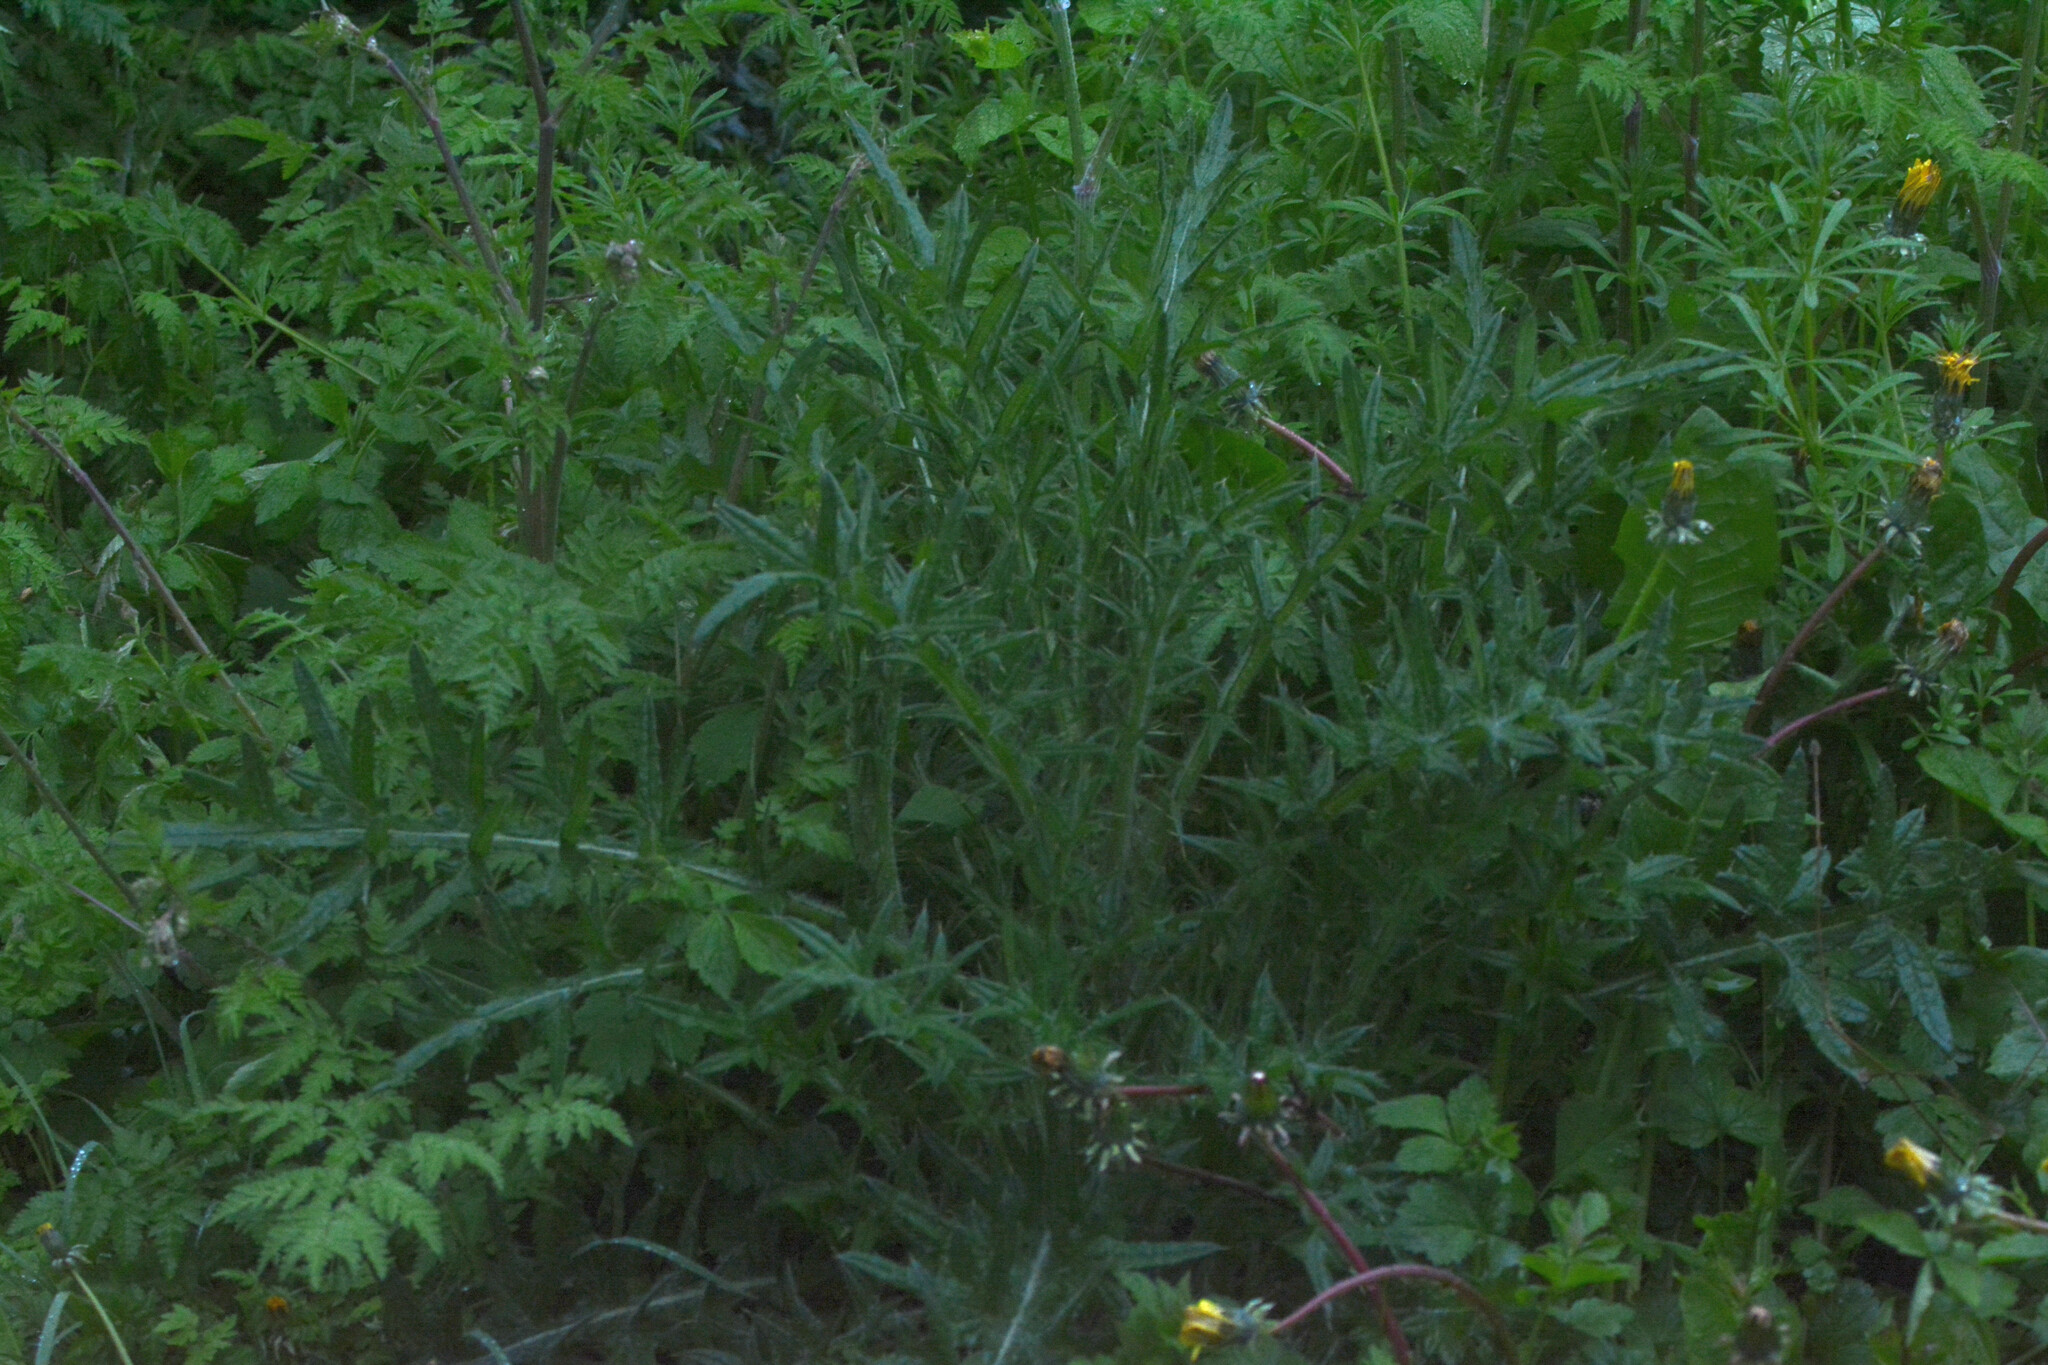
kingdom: Plantae
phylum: Tracheophyta
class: Magnoliopsida
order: Asterales
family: Asteraceae
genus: Cirsium
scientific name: Cirsium vulgare
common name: Bull thistle
